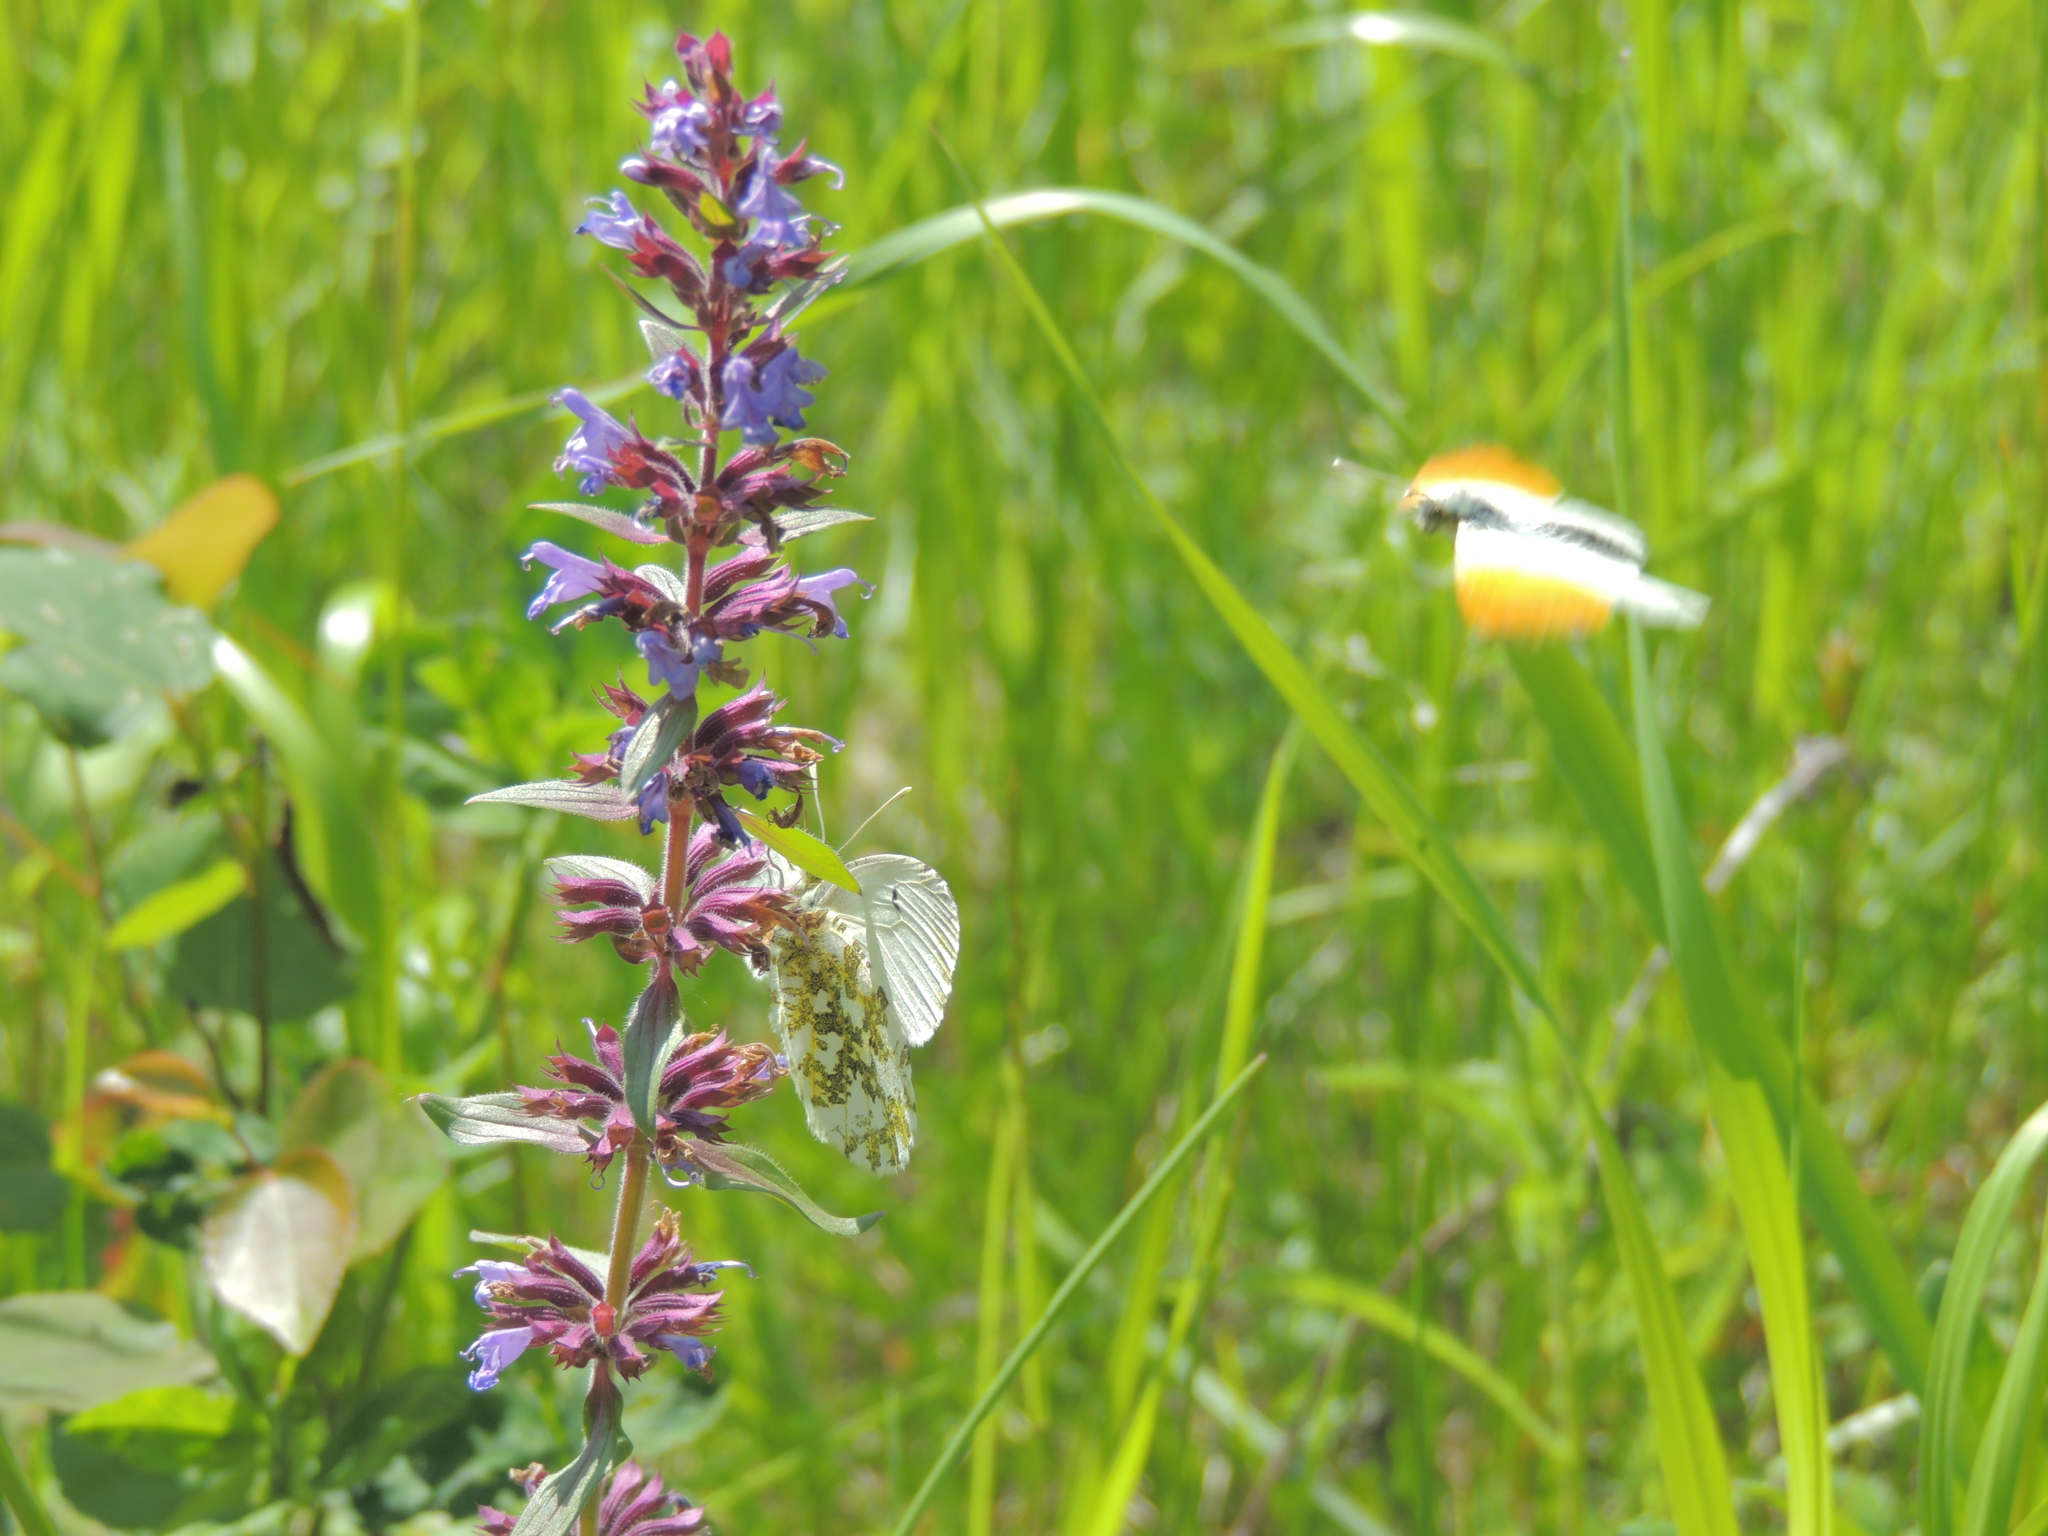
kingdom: Animalia
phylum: Arthropoda
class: Insecta
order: Lepidoptera
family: Pieridae
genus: Anthocharis
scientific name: Anthocharis cardamines
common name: Orange-tip
